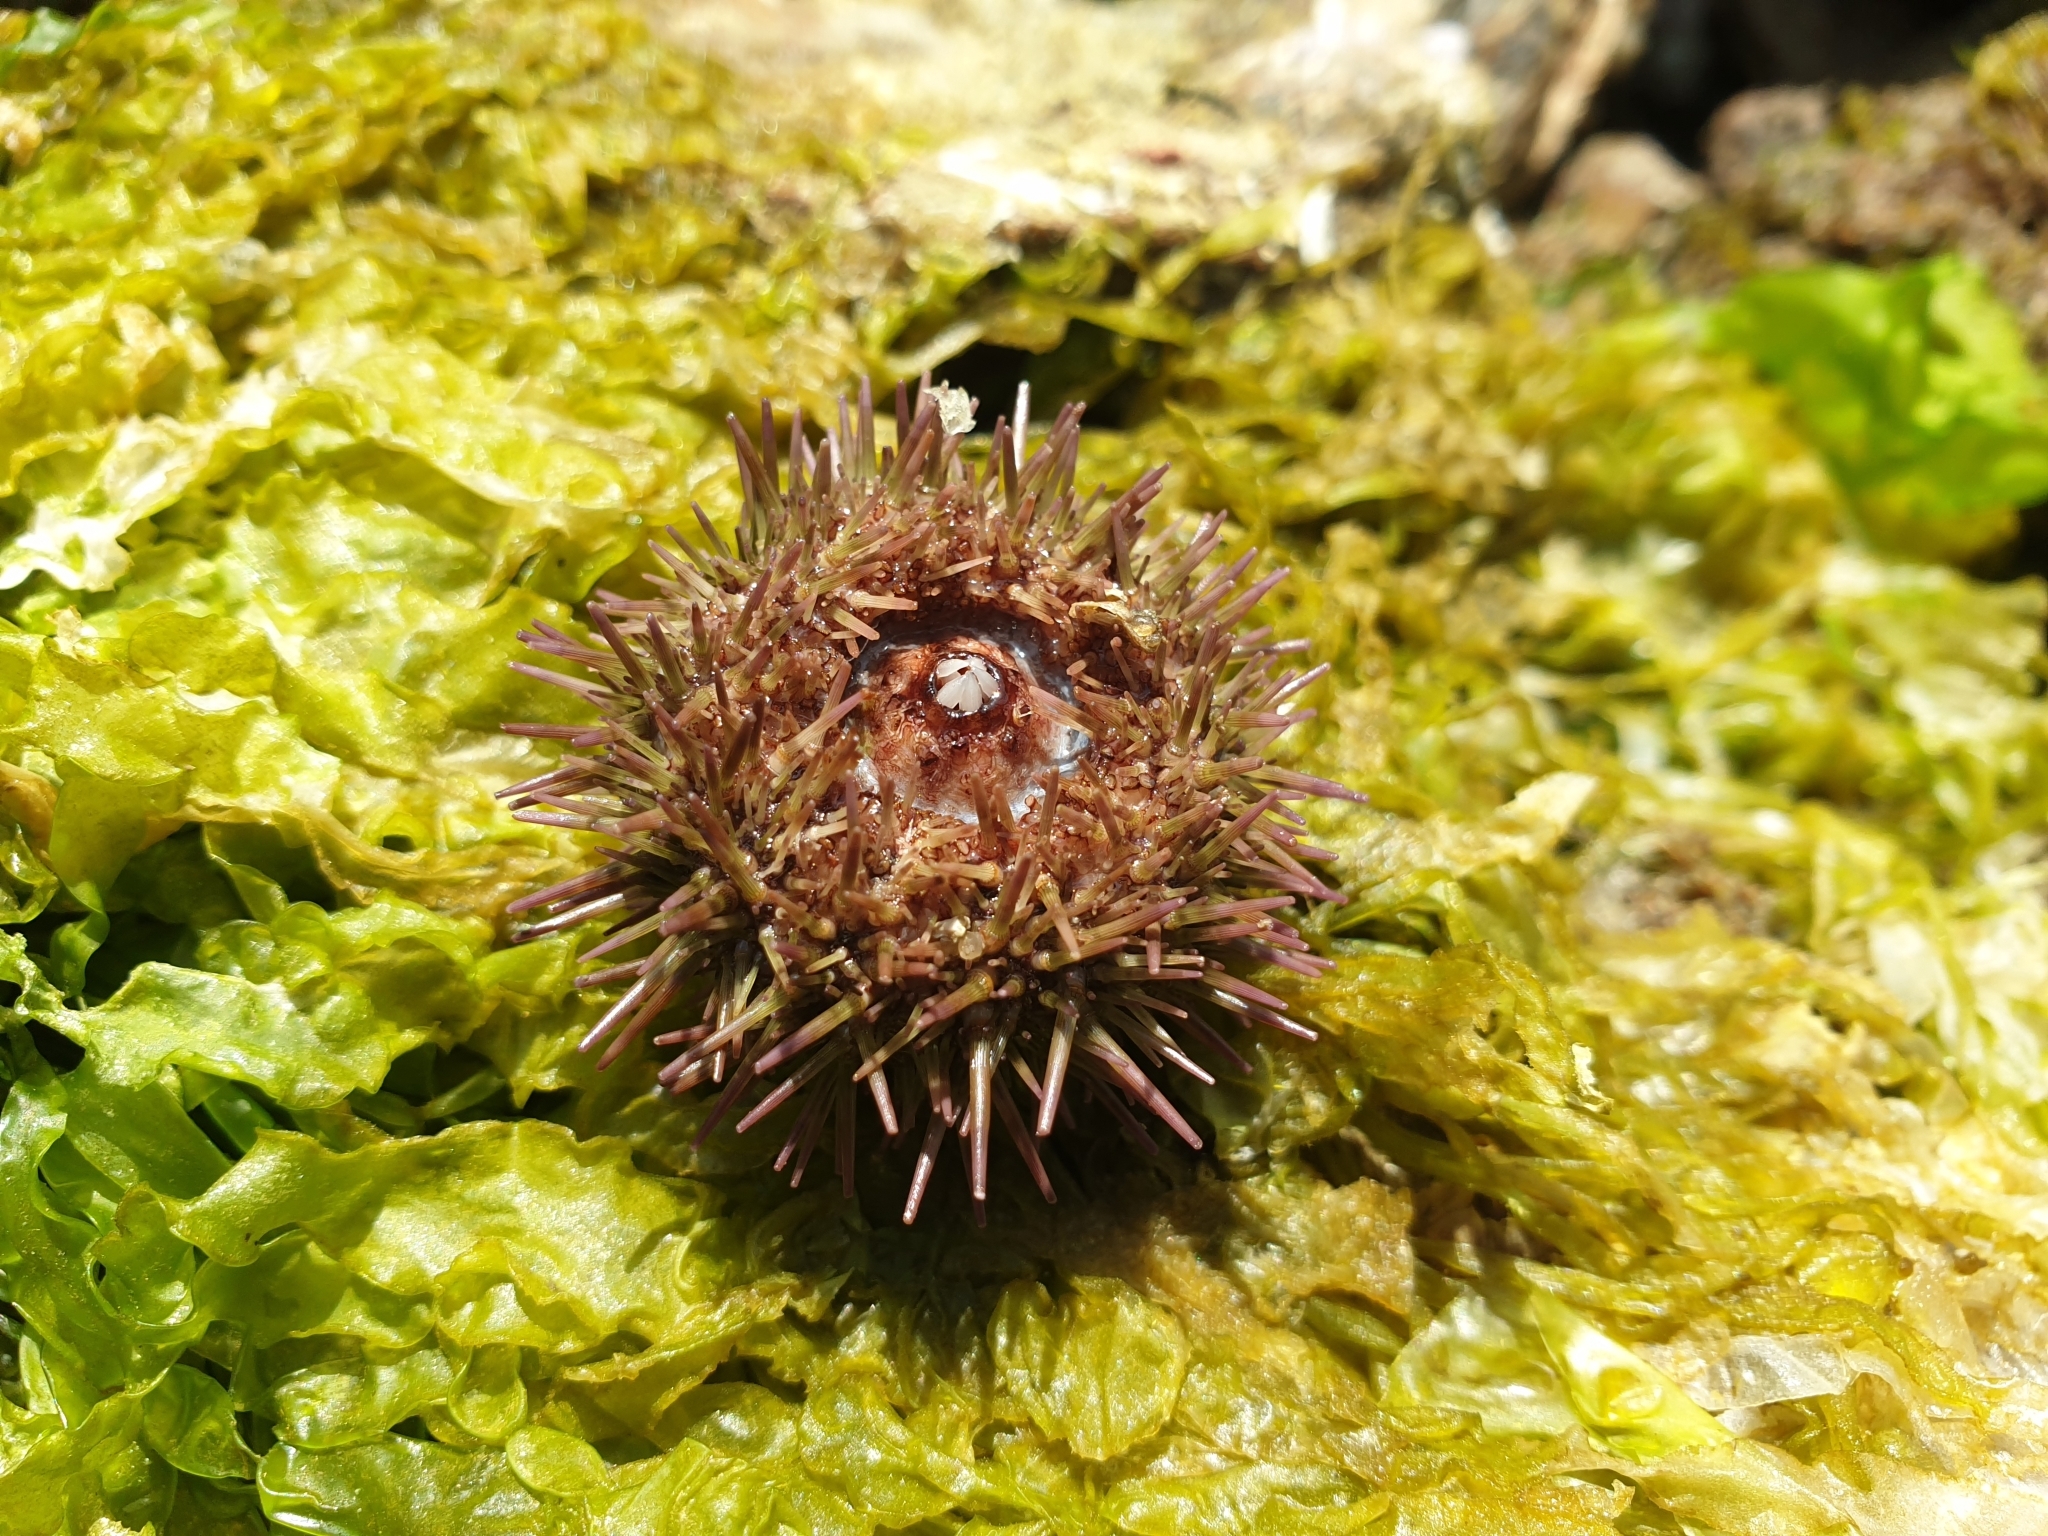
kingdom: Animalia
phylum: Echinodermata
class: Echinoidea
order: Camarodonta
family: Parechinidae
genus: Psammechinus
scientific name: Psammechinus miliaris
